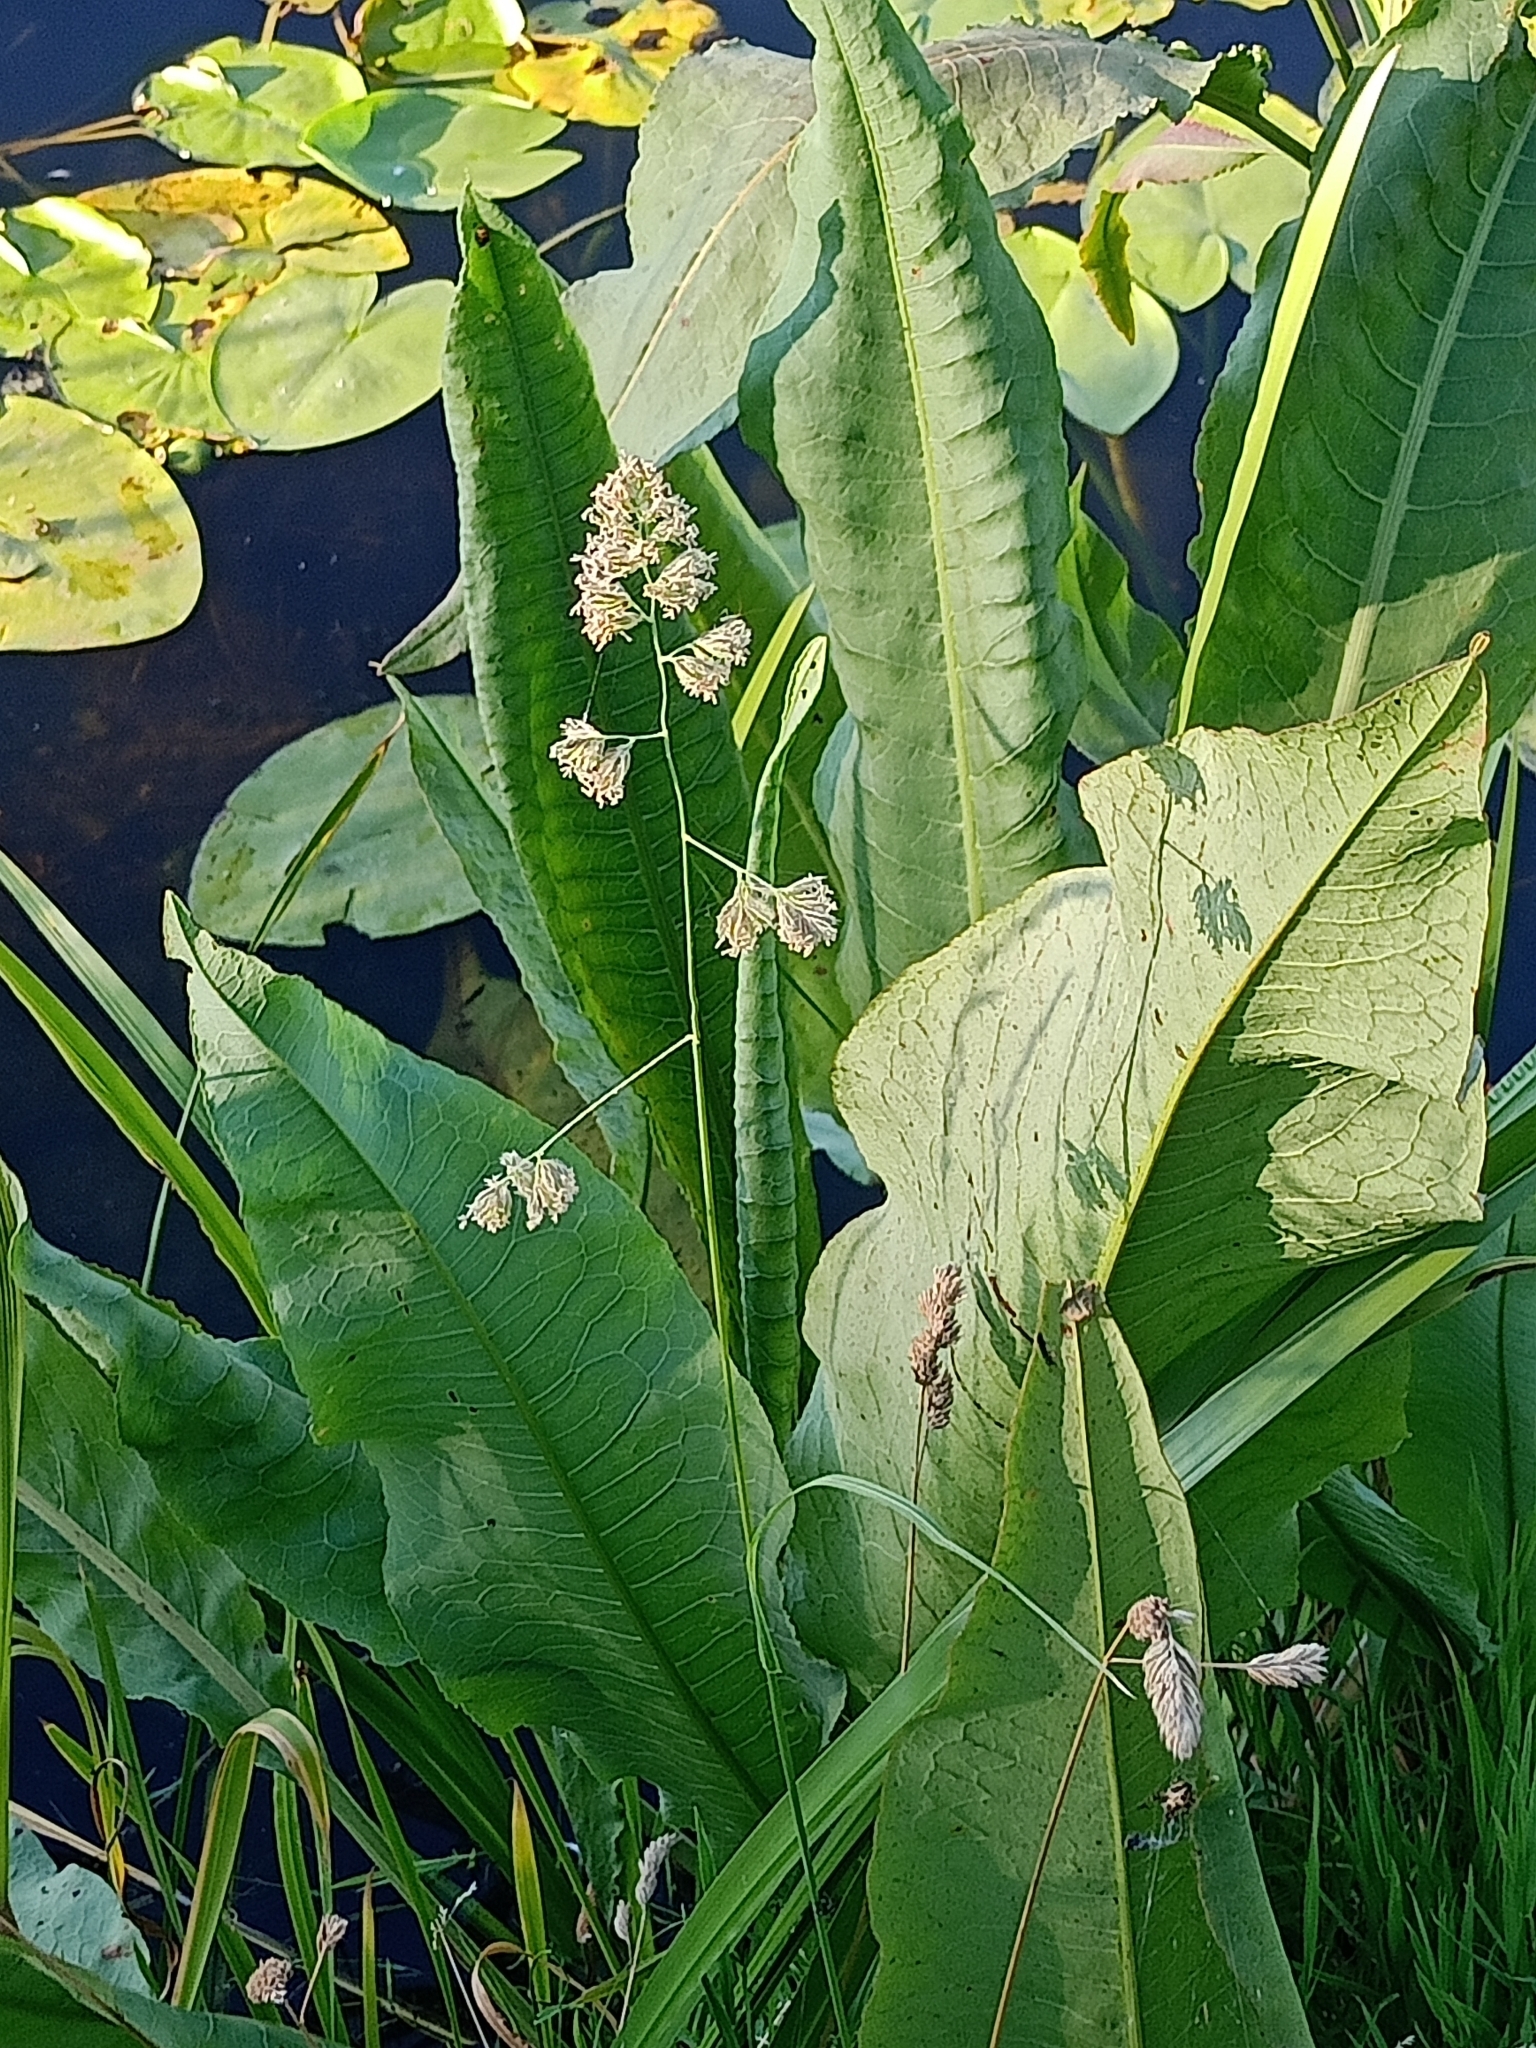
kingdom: Plantae
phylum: Tracheophyta
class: Liliopsida
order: Poales
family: Poaceae
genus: Dactylis
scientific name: Dactylis glomerata
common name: Orchardgrass
